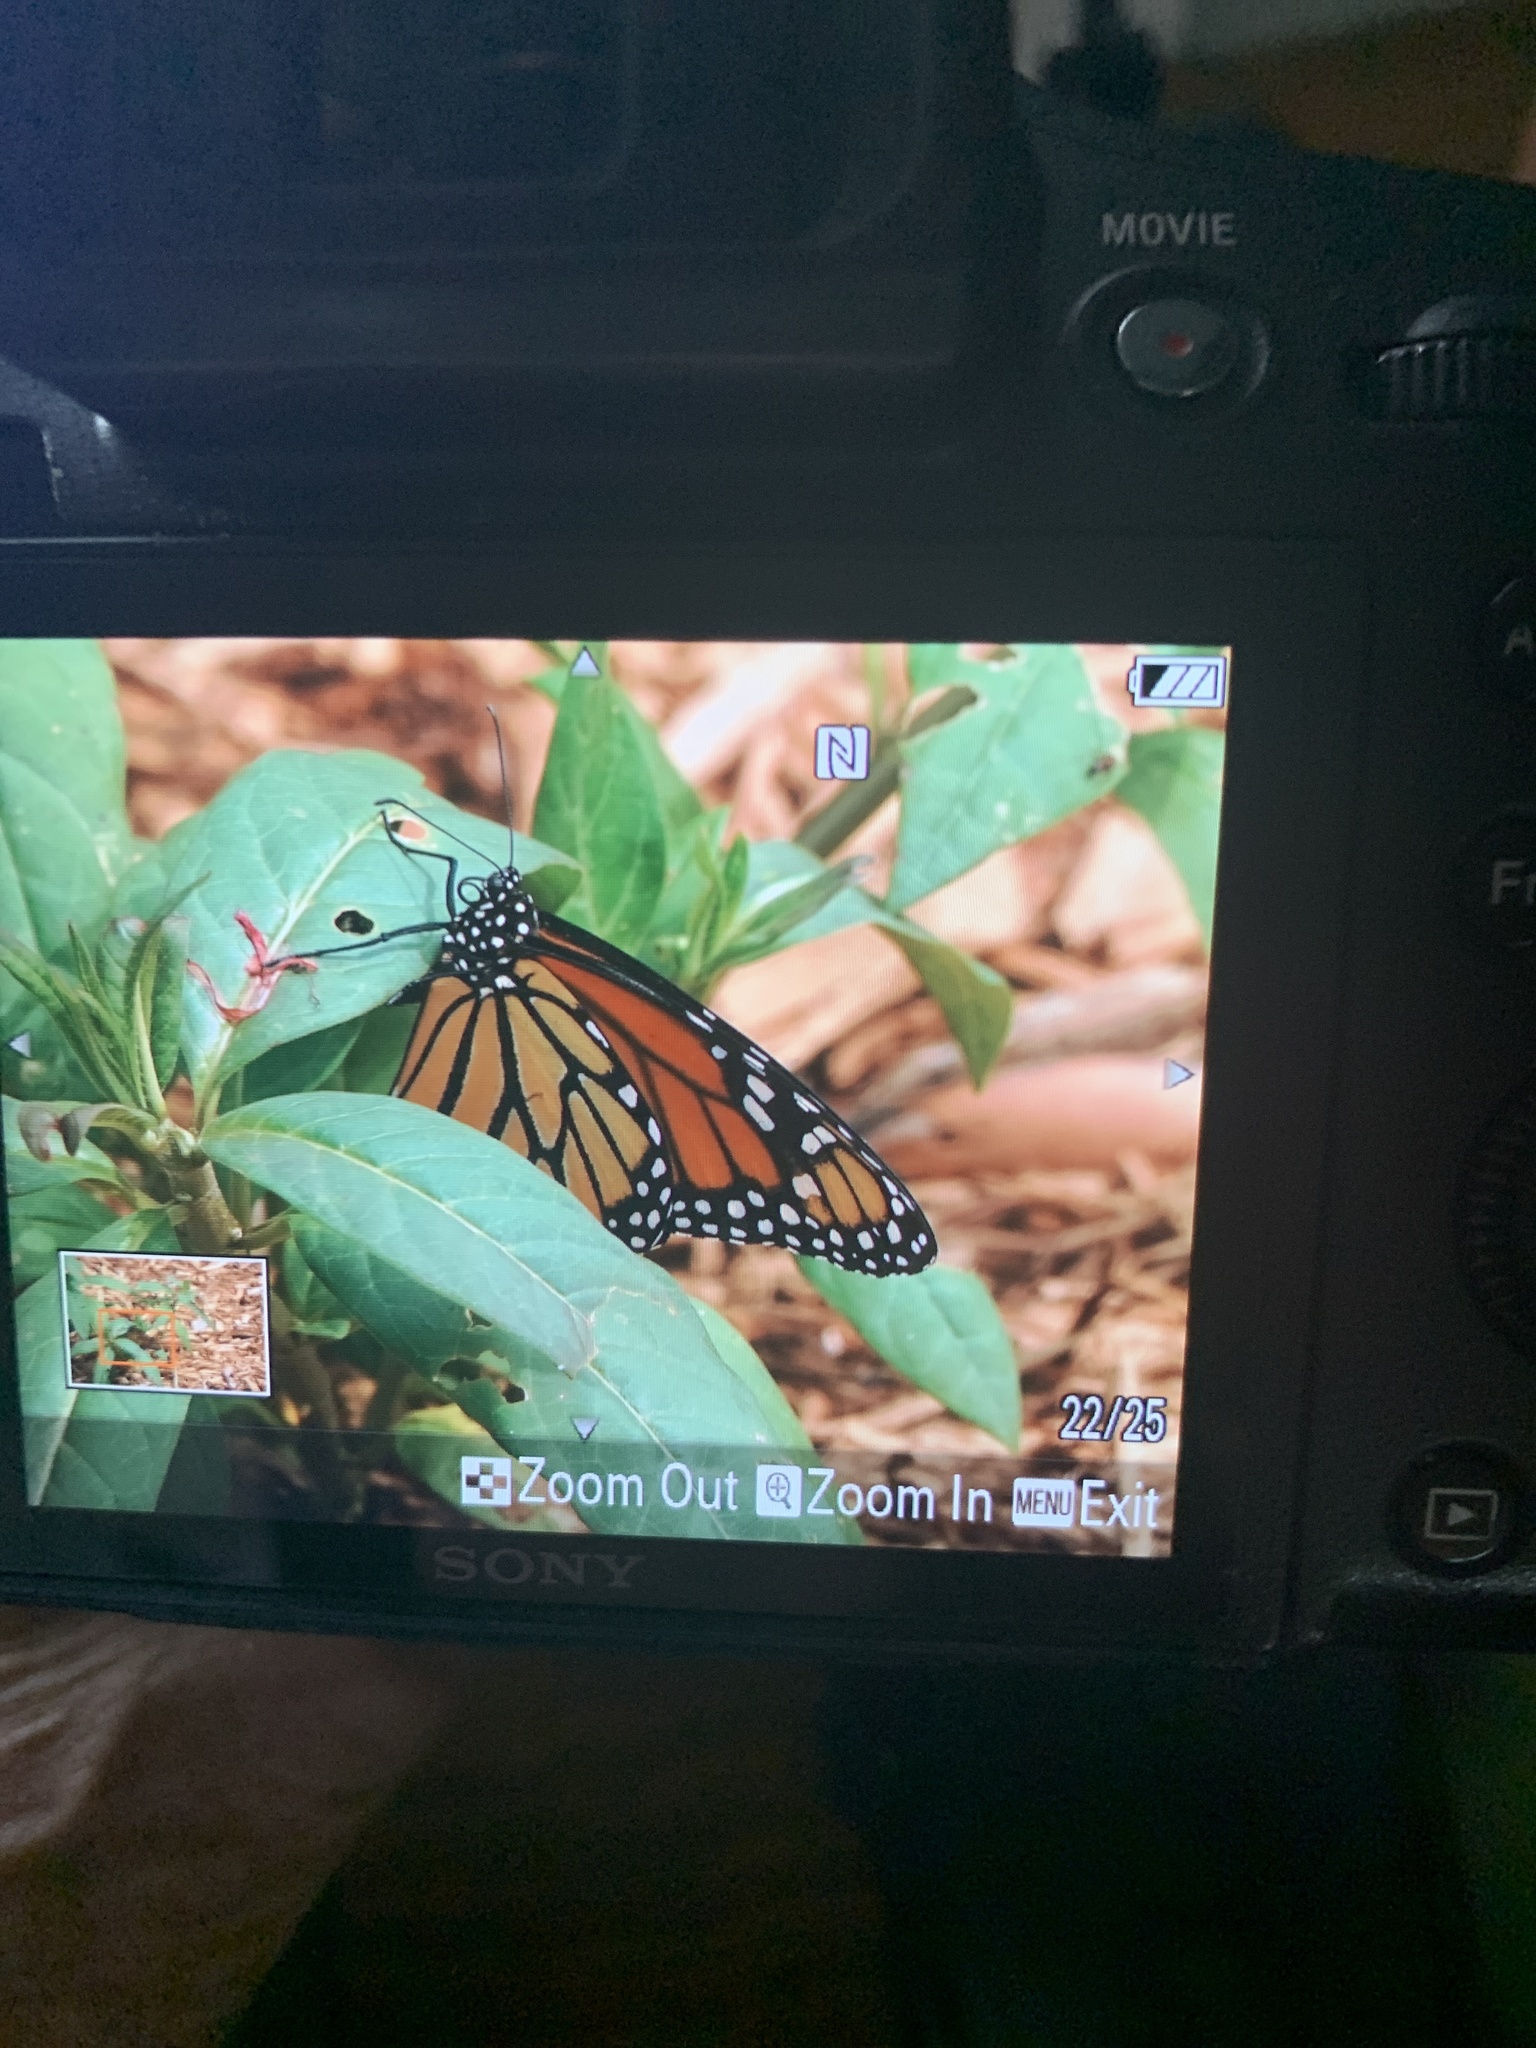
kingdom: Animalia
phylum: Arthropoda
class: Insecta
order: Lepidoptera
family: Nymphalidae
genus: Danaus
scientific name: Danaus plexippus
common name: Monarch
